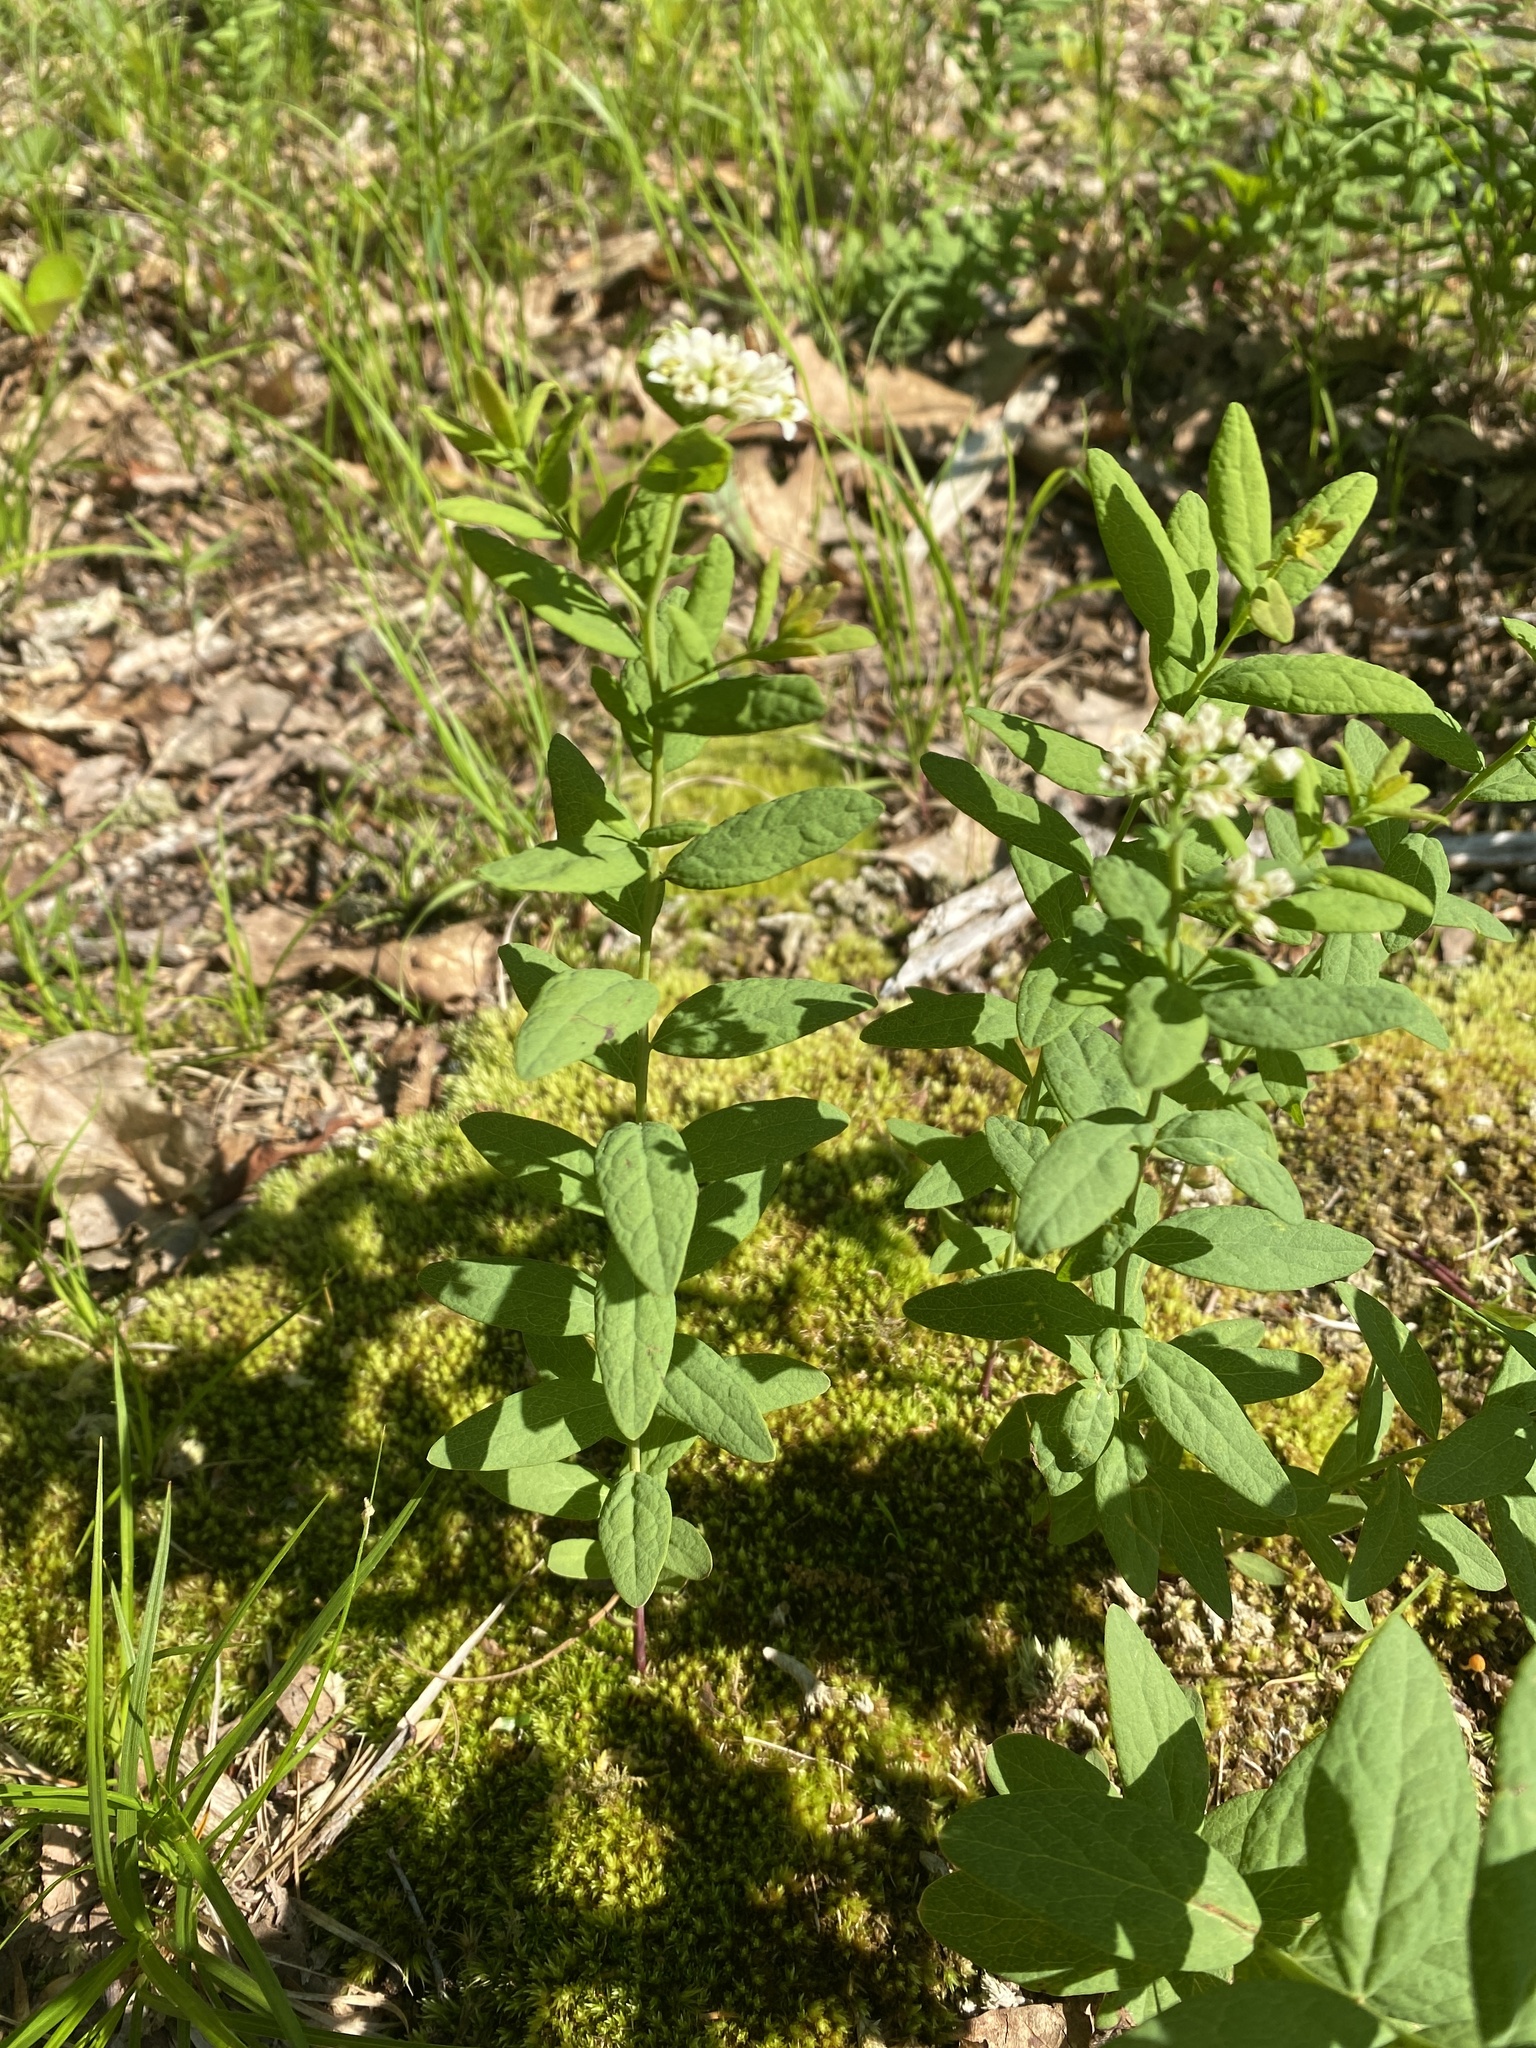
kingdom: Plantae
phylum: Tracheophyta
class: Magnoliopsida
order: Santalales
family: Comandraceae
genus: Comandra
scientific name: Comandra umbellata
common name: Bastard toadflax
